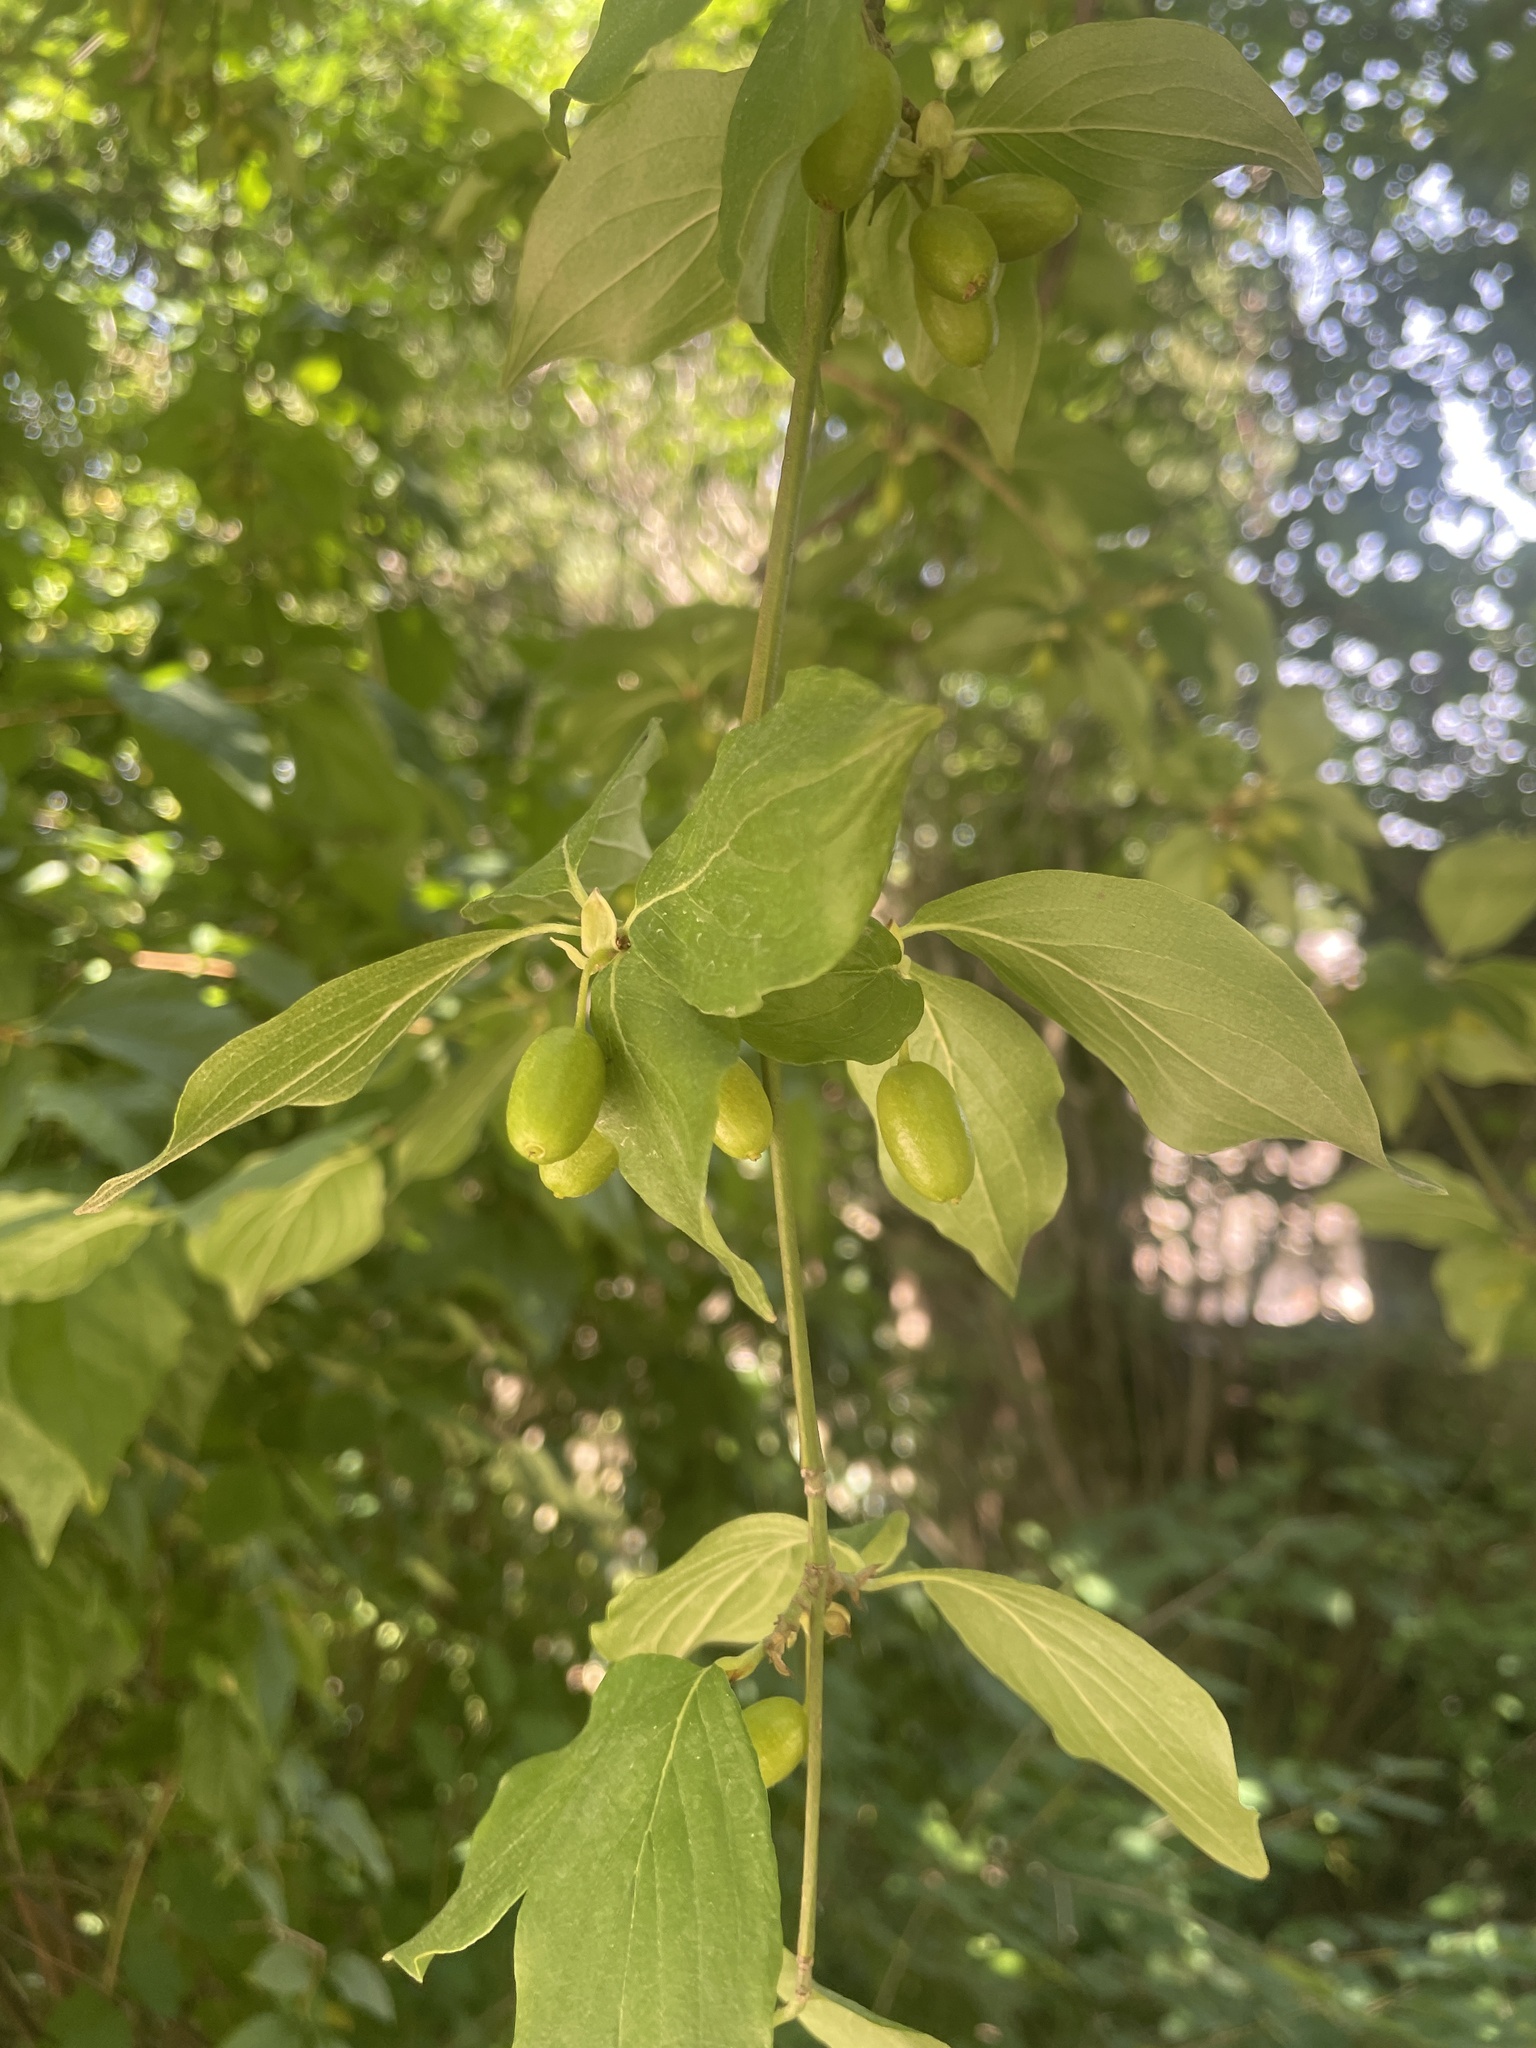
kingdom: Plantae
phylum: Tracheophyta
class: Magnoliopsida
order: Cornales
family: Cornaceae
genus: Cornus
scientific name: Cornus mas
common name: Cornelian-cherry
